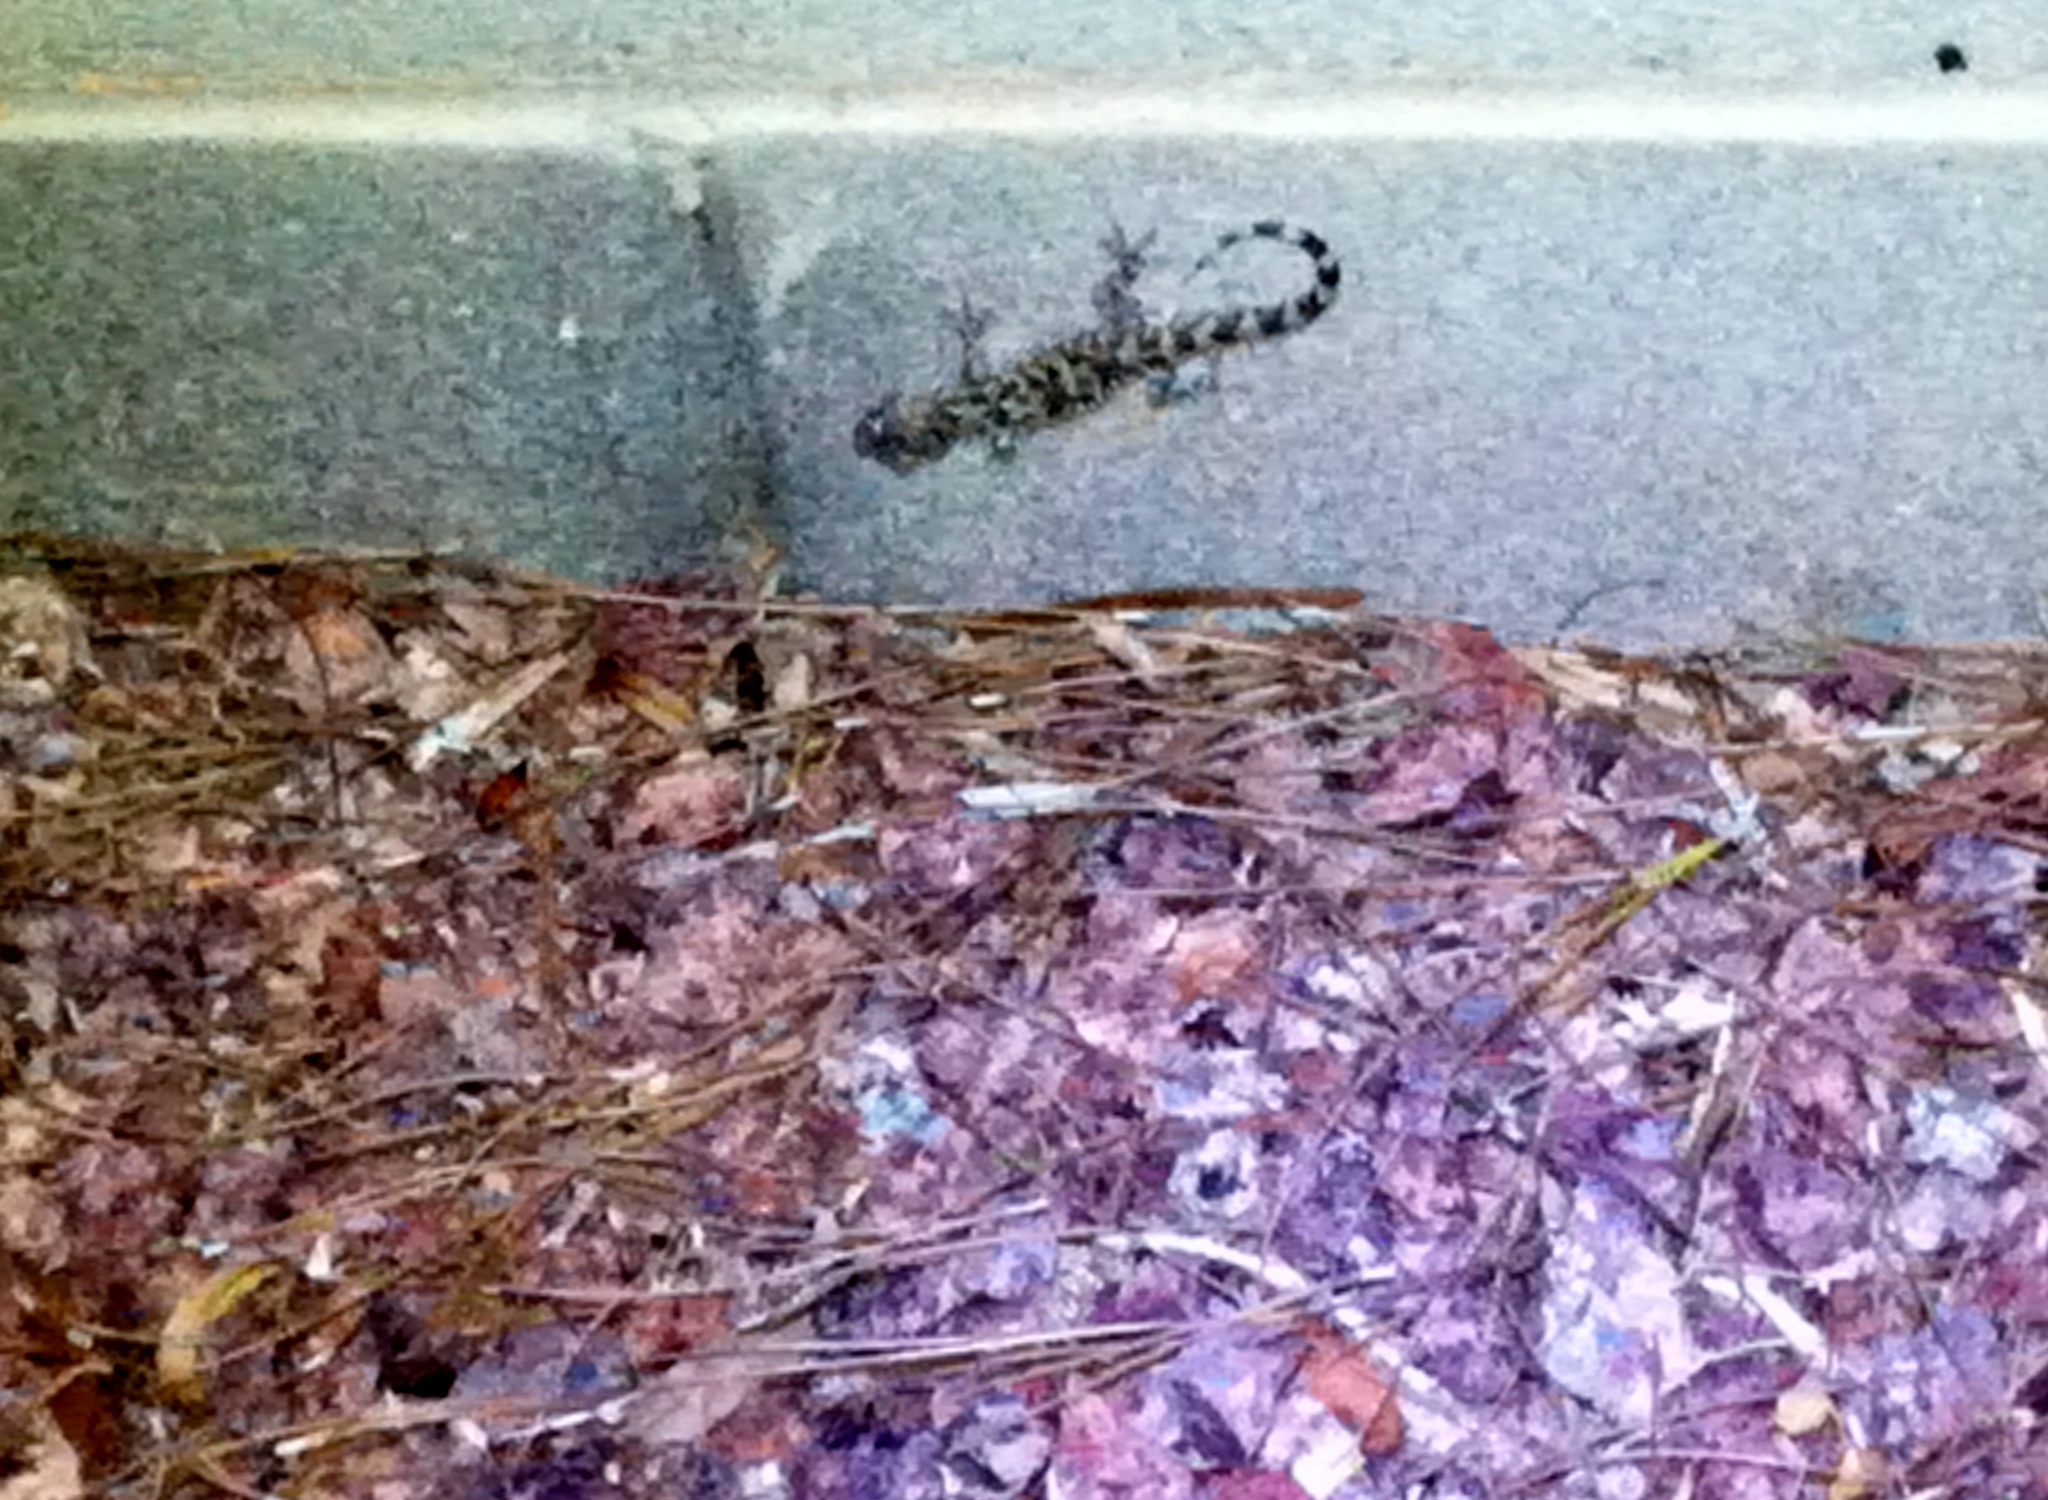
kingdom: Animalia
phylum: Chordata
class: Squamata
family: Gekkonidae
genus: Hemidactylus
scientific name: Hemidactylus turcicus
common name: Turkish gecko
